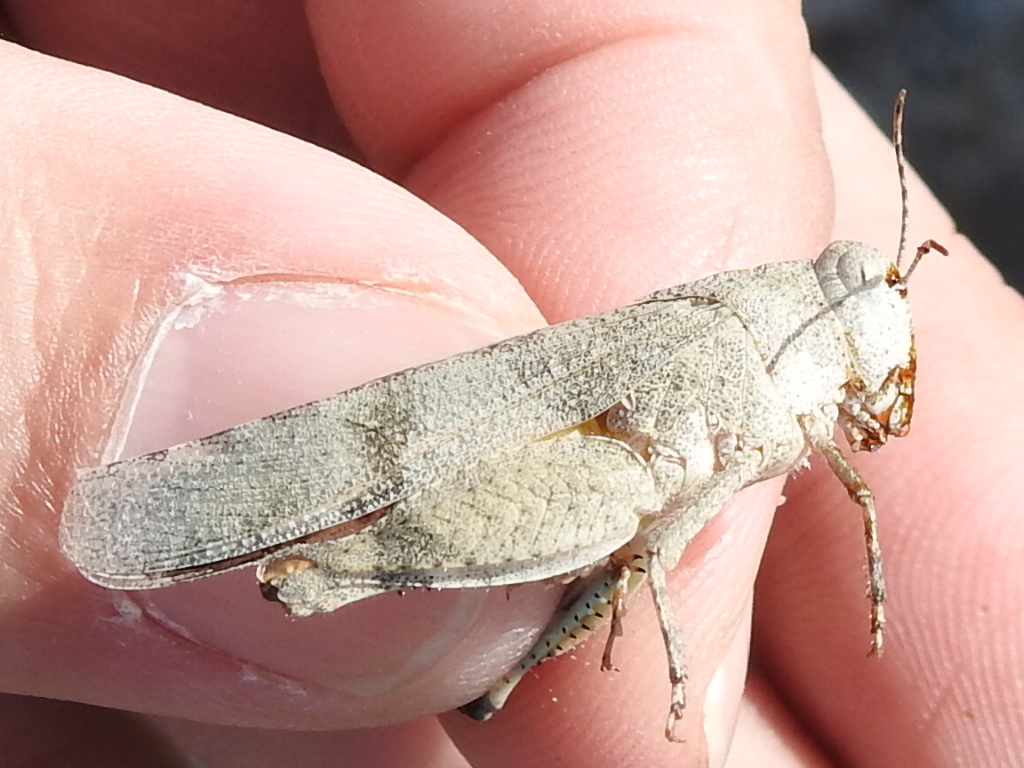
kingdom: Animalia
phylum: Arthropoda
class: Insecta
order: Orthoptera
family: Acrididae
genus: Lactista
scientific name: Lactista azteca
